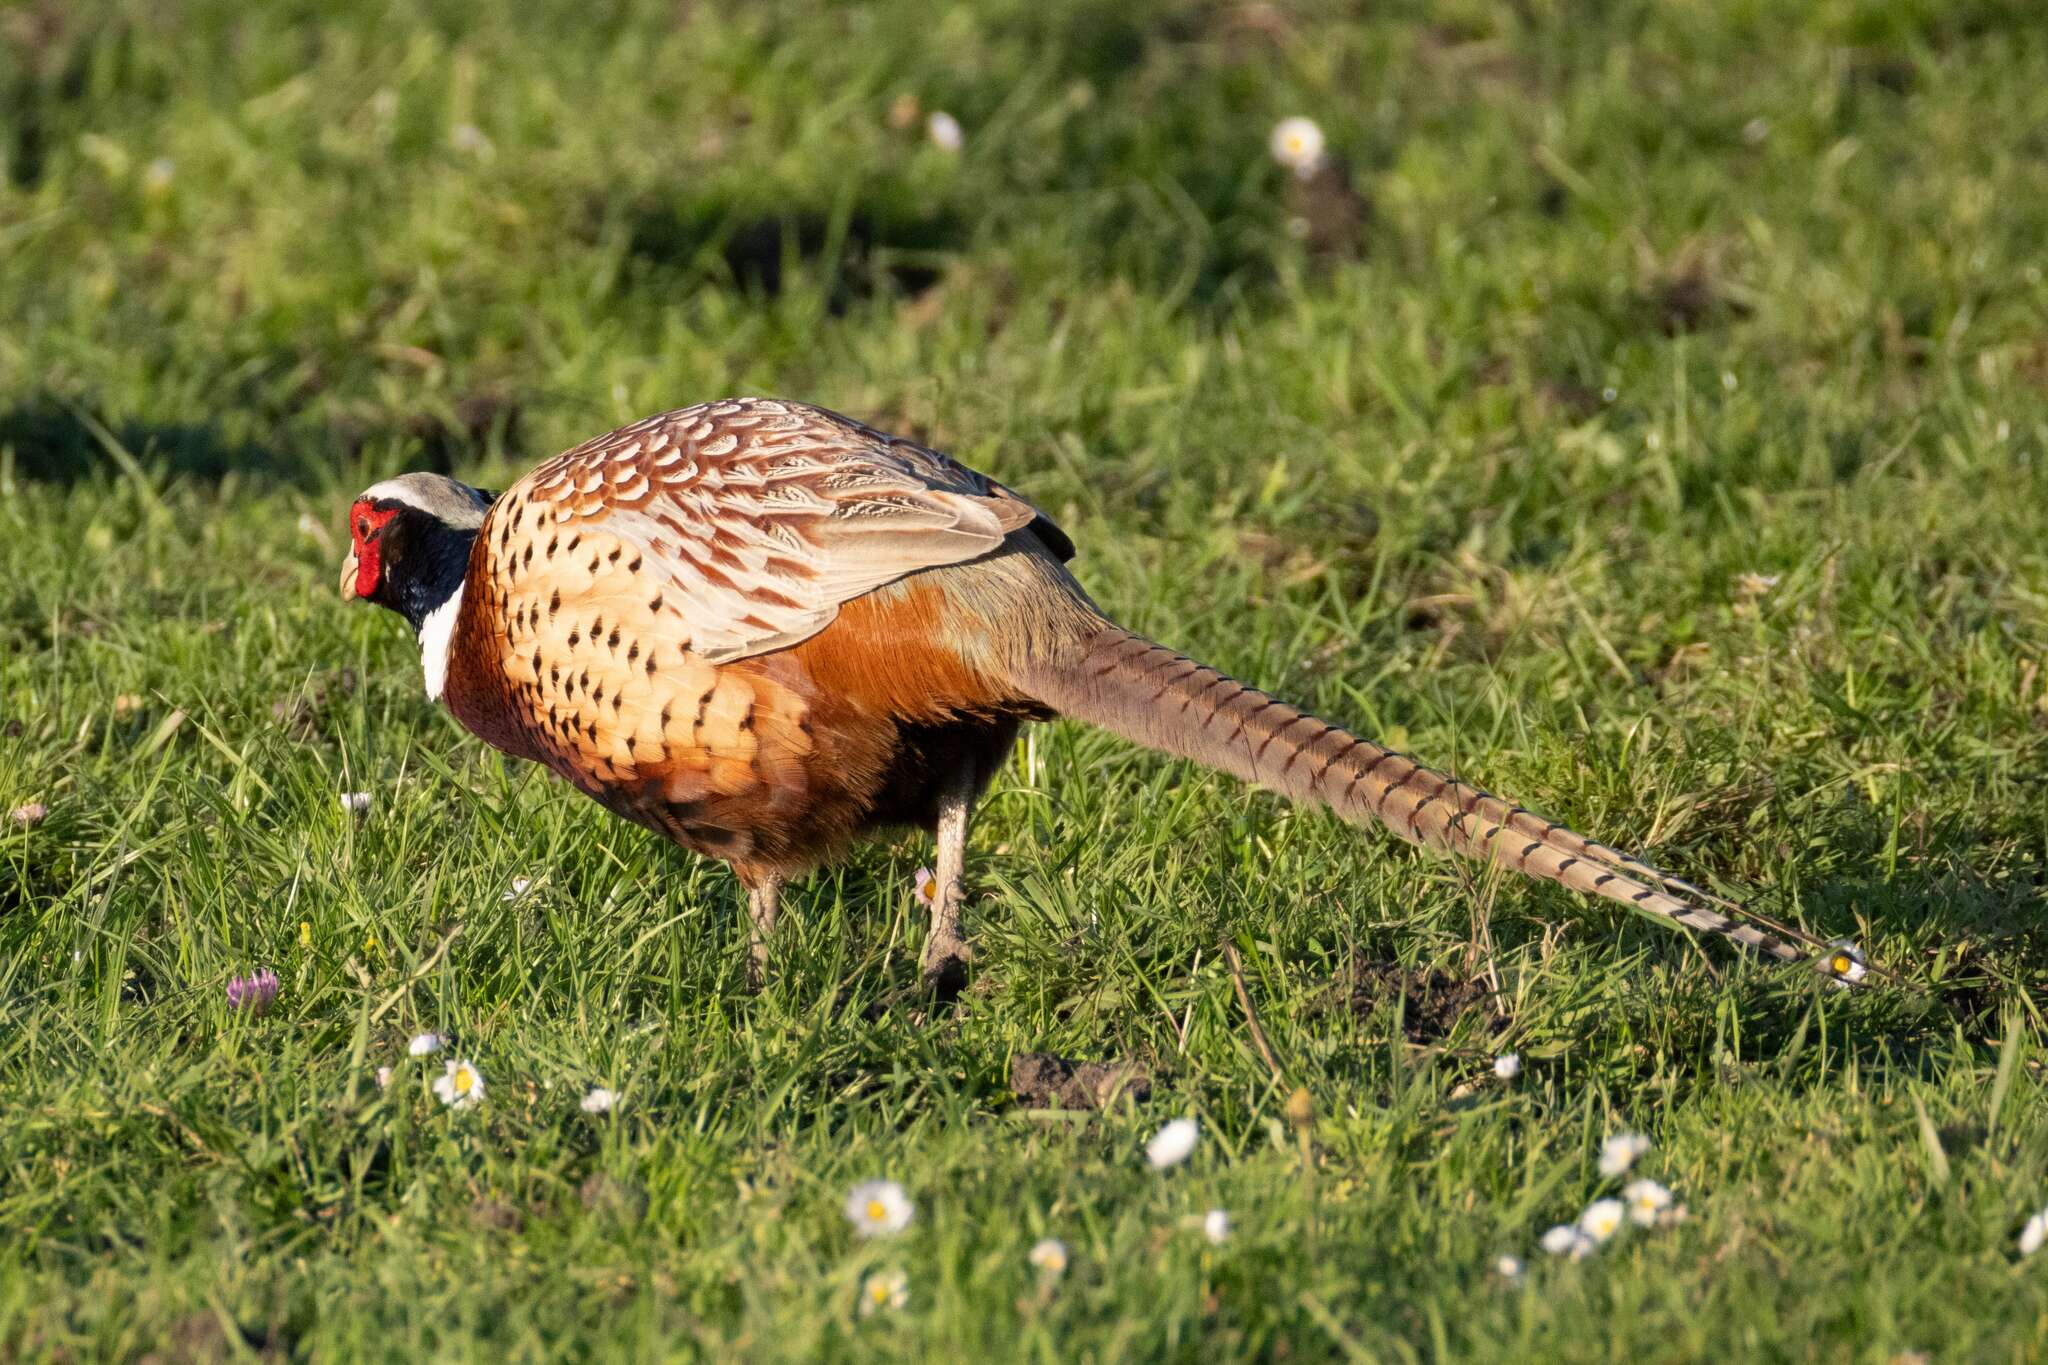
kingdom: Animalia
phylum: Chordata
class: Aves
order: Galliformes
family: Phasianidae
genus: Phasianus
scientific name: Phasianus colchicus
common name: Common pheasant
